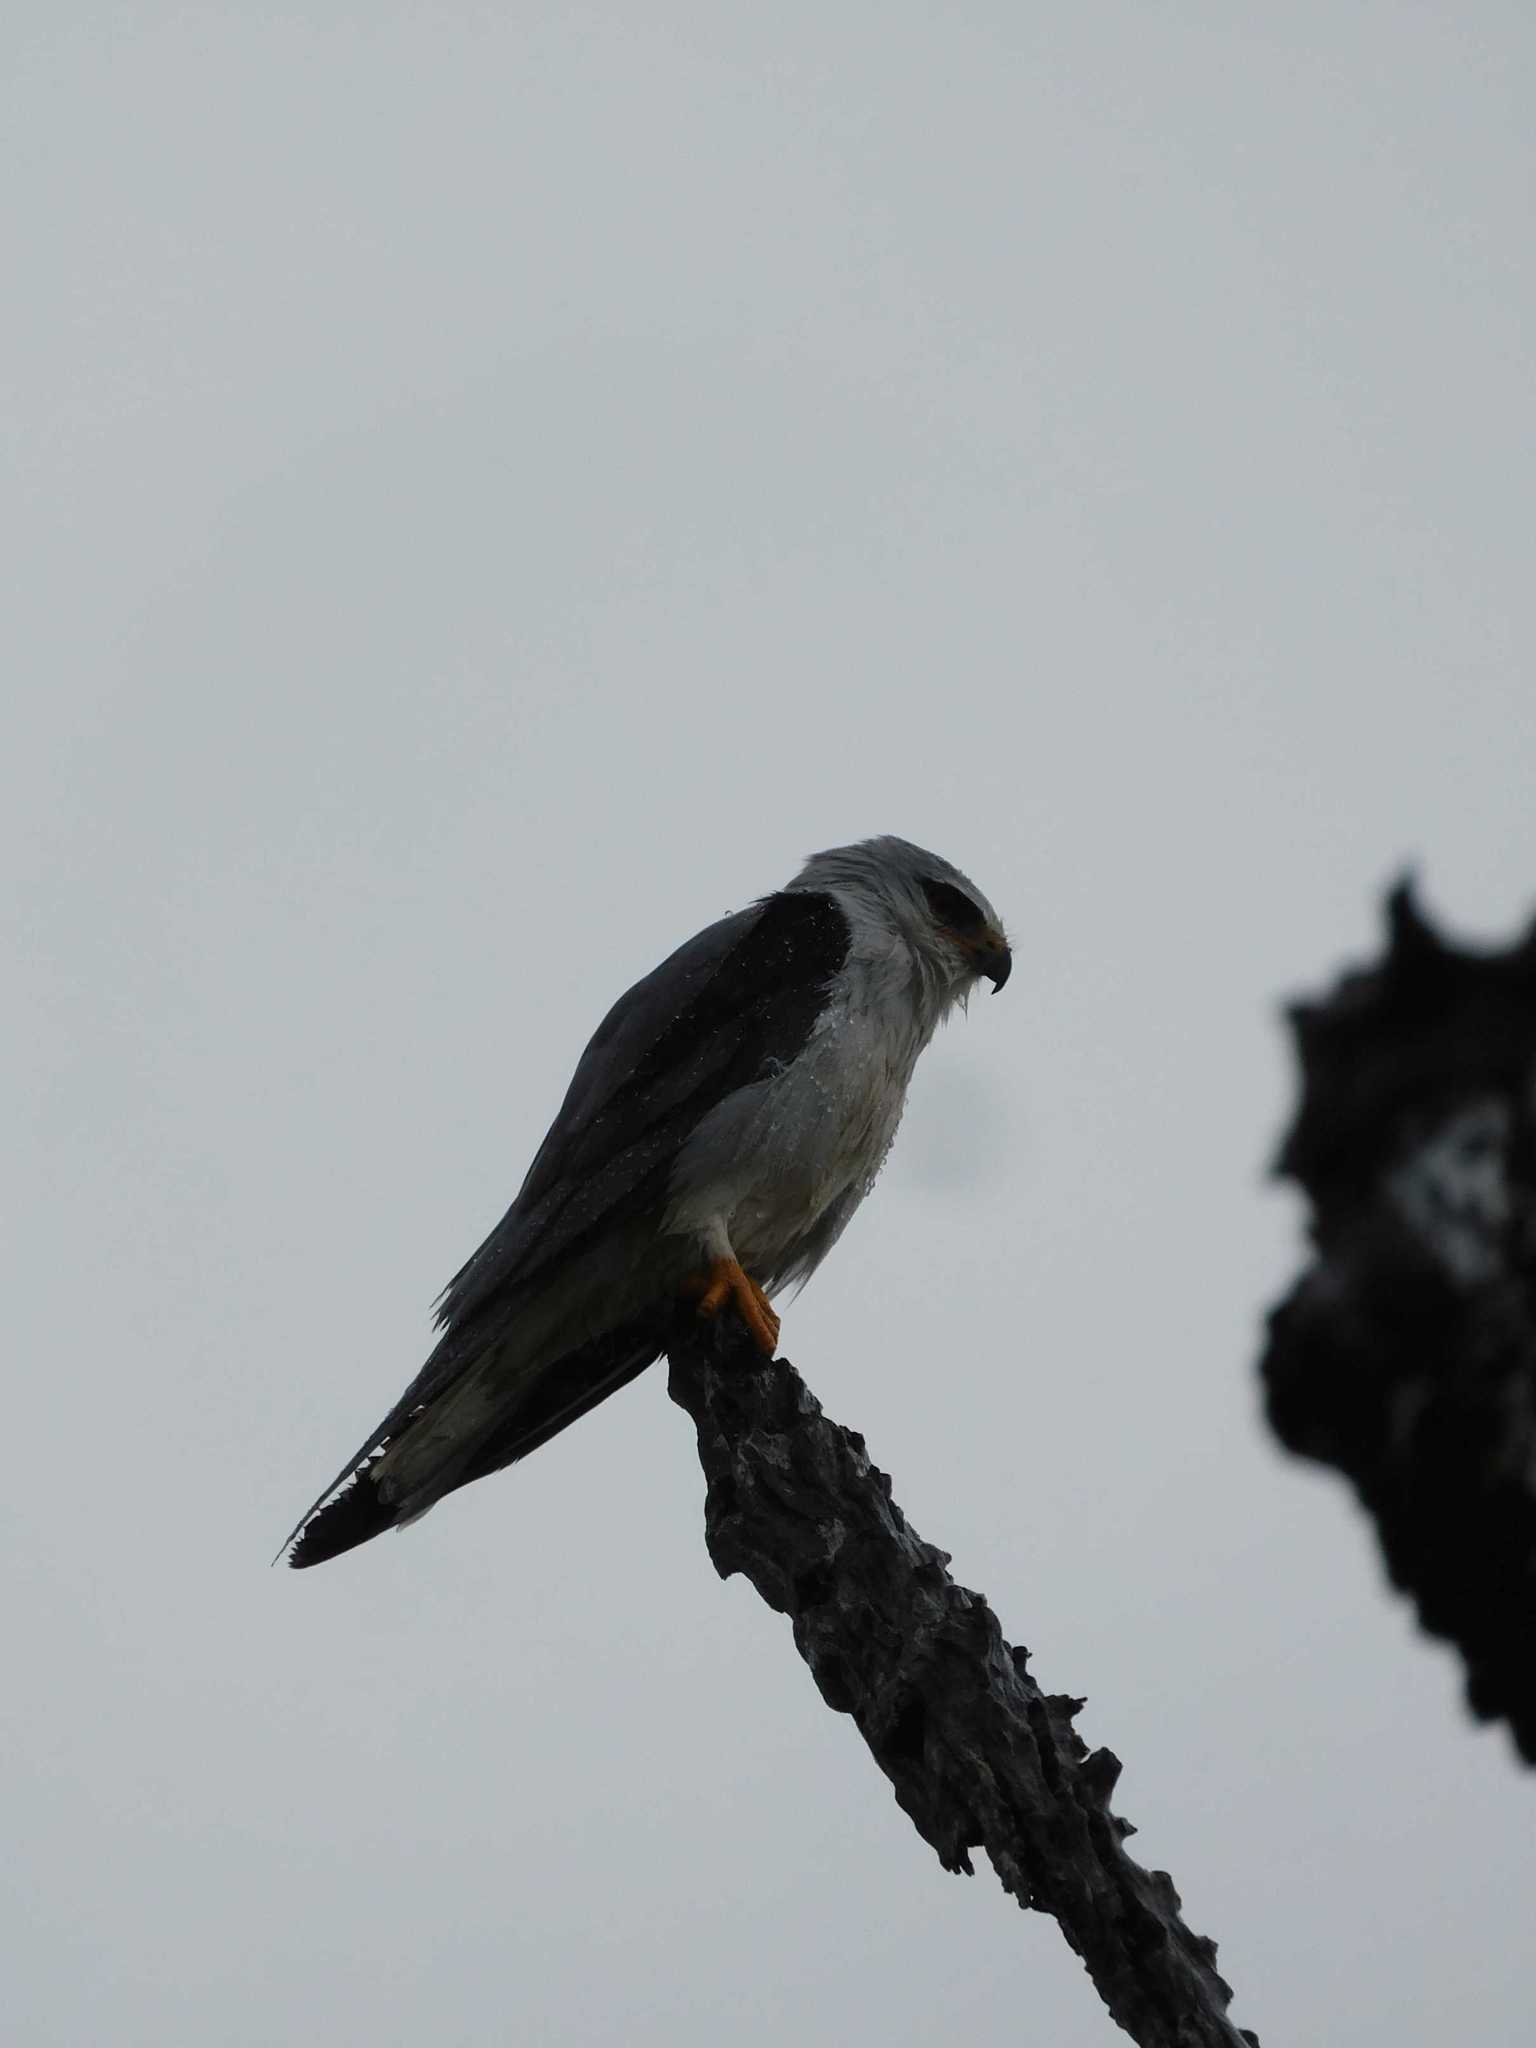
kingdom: Animalia
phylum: Chordata
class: Aves
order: Accipitriformes
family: Accipitridae
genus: Elanus
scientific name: Elanus caeruleus
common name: Black-winged kite
